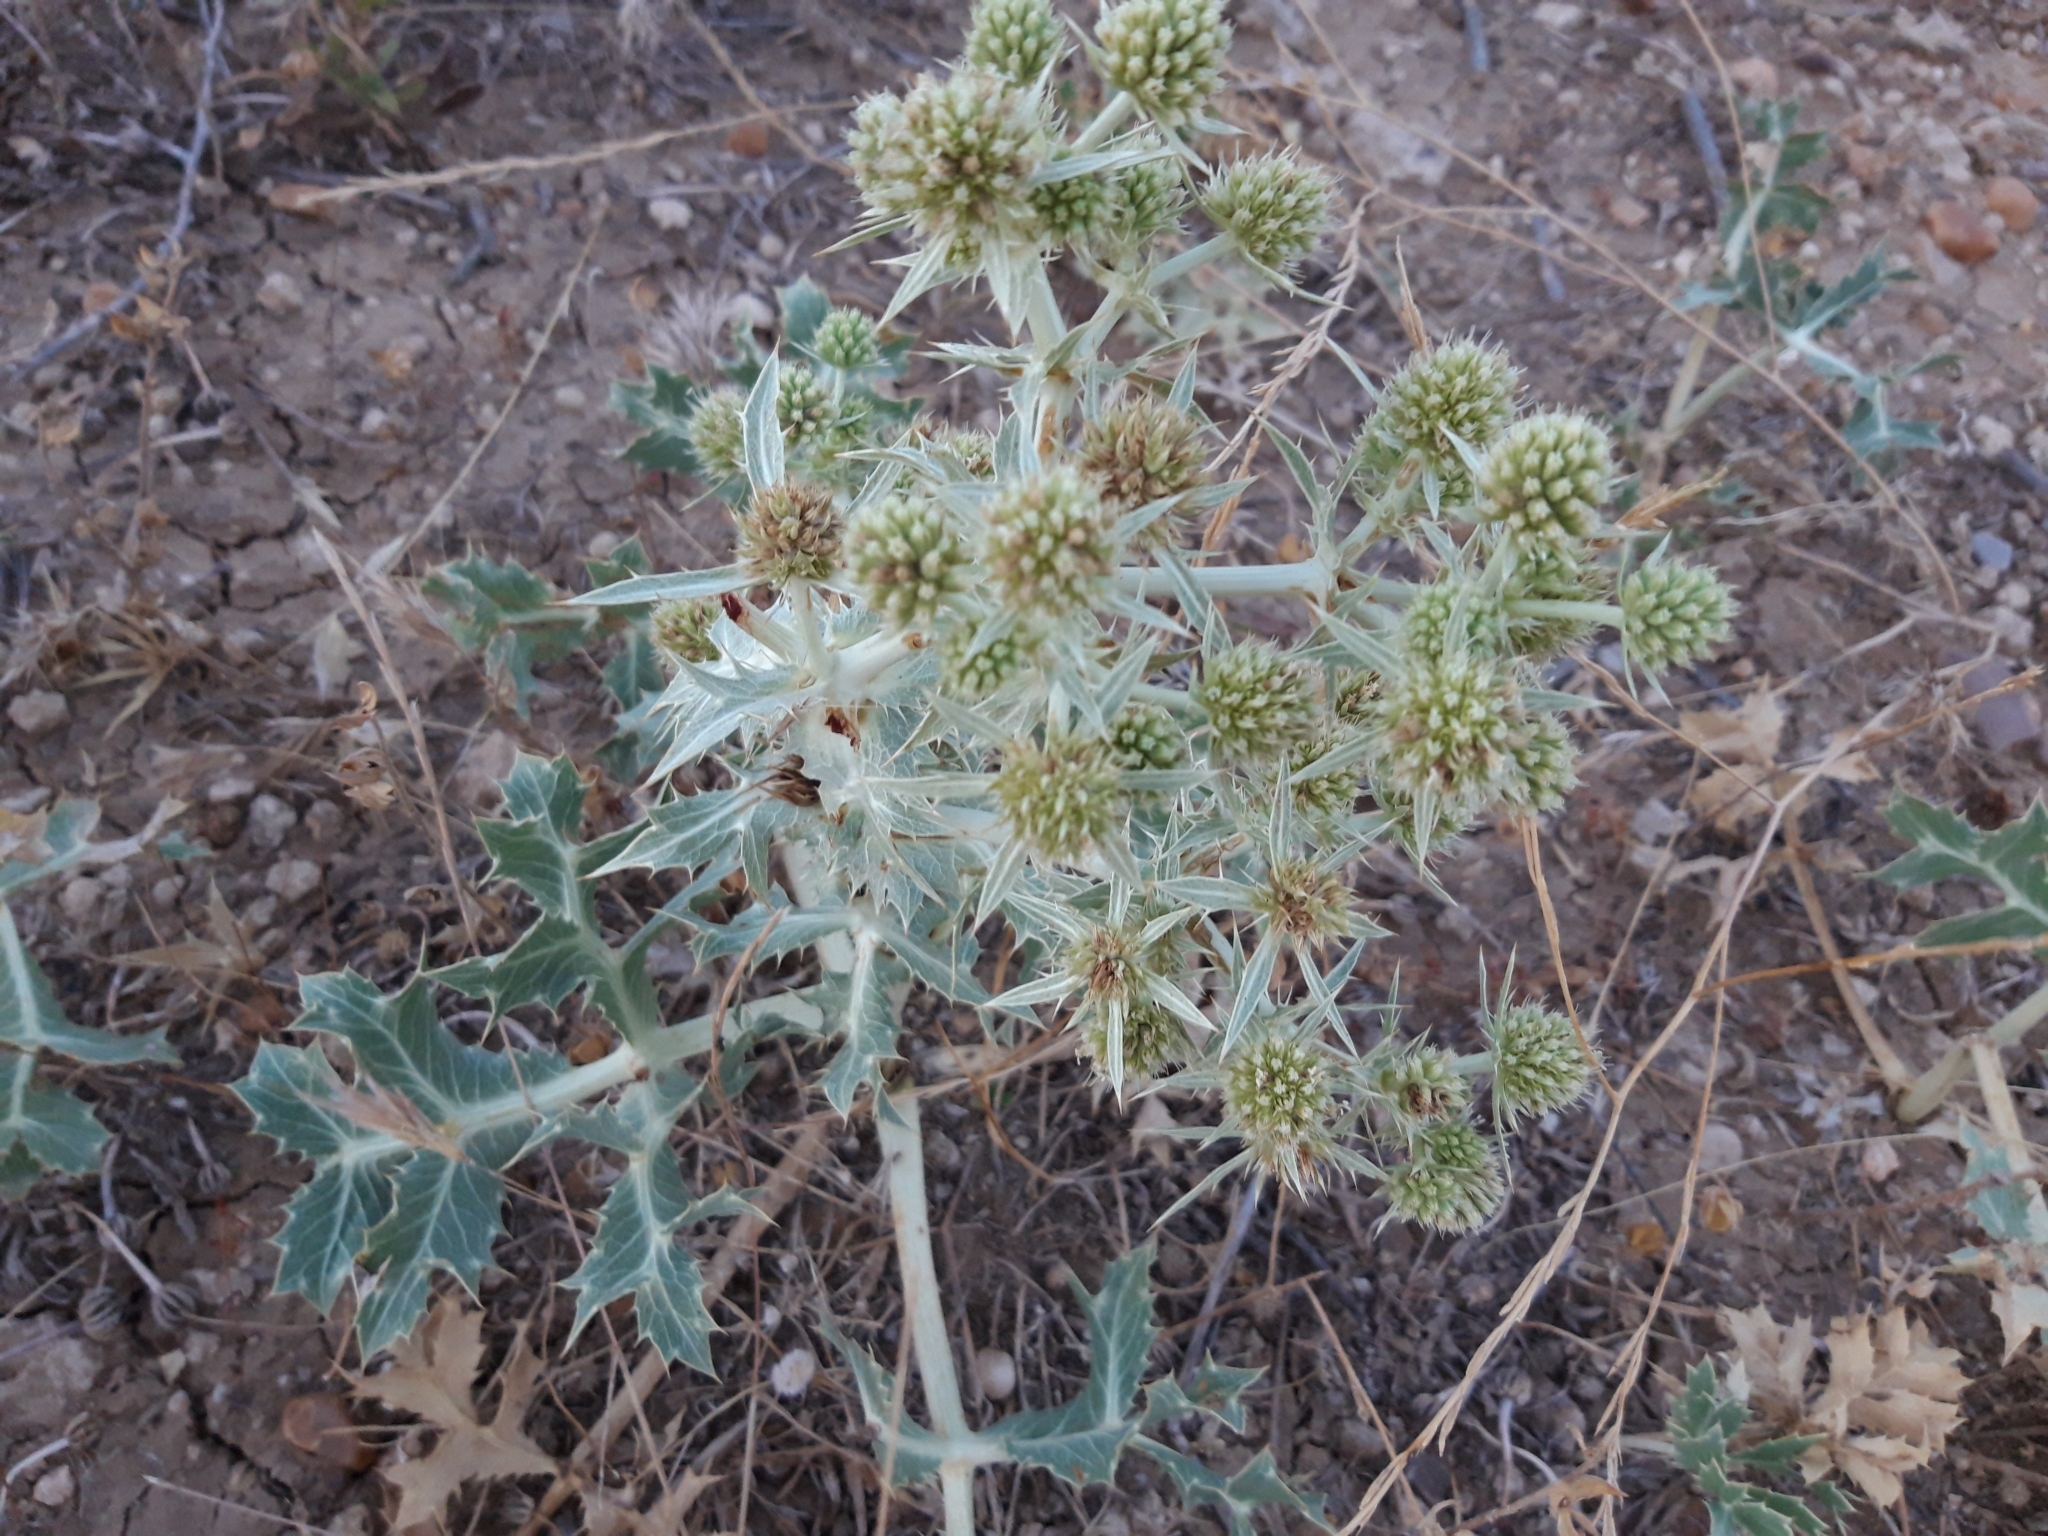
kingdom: Plantae
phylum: Tracheophyta
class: Magnoliopsida
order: Apiales
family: Apiaceae
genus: Eryngium
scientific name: Eryngium campestre
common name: Field eryngo
